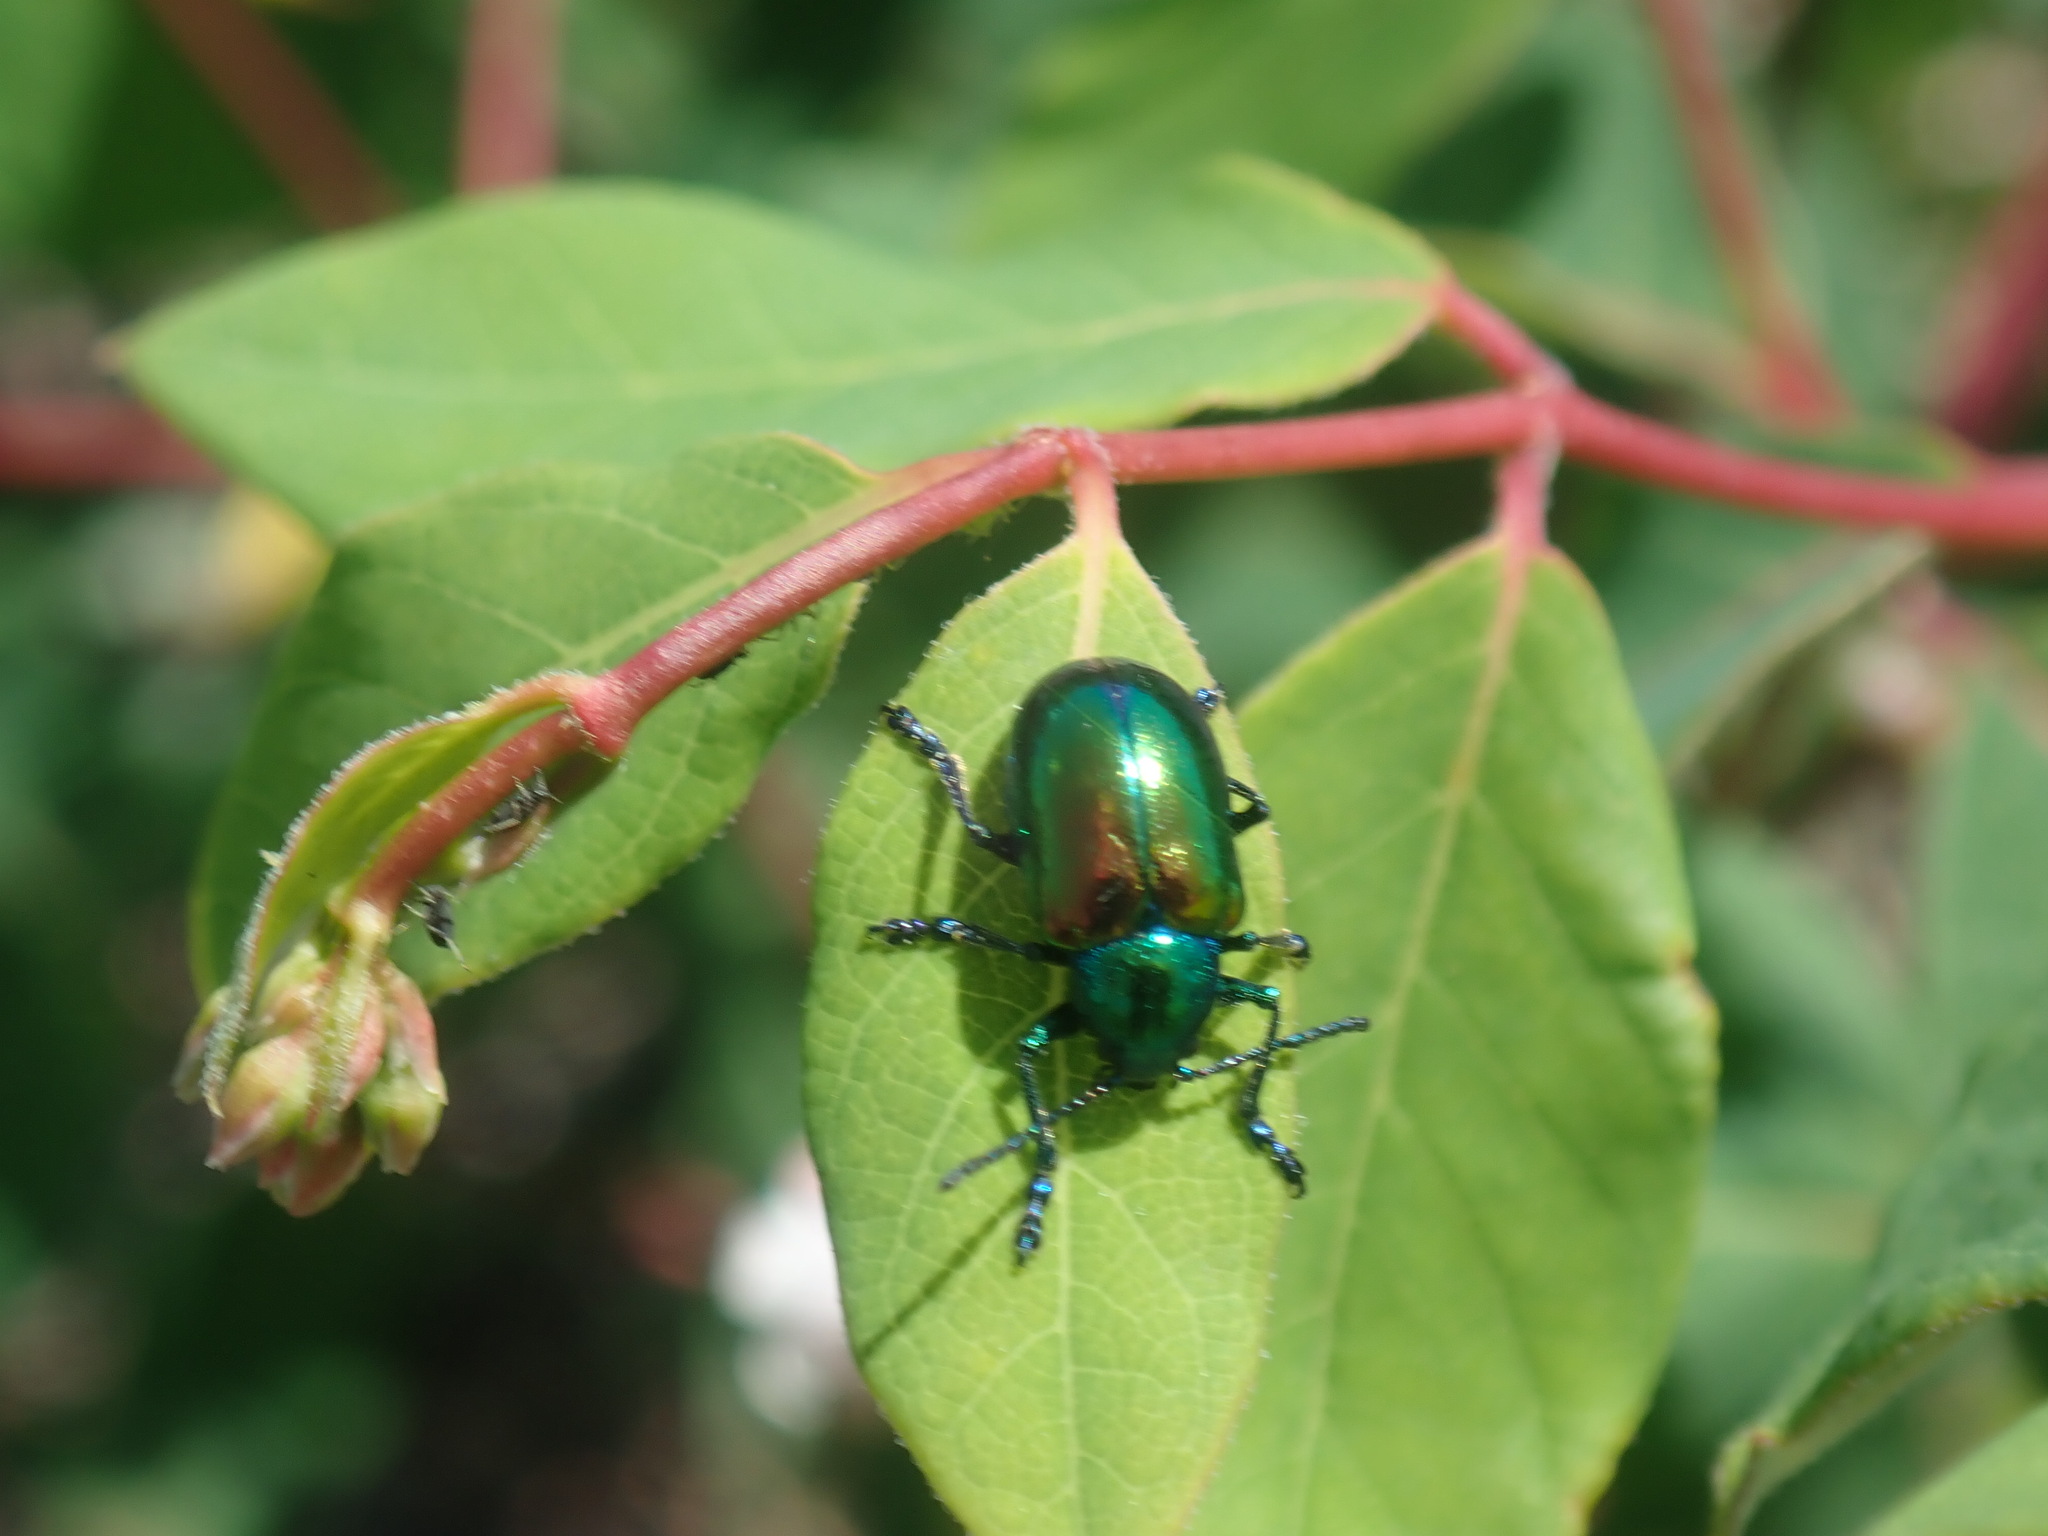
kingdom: Animalia
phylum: Arthropoda
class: Insecta
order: Coleoptera
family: Chrysomelidae
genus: Chrysochus
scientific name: Chrysochus auratus
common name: Dogbane leaf beetle
